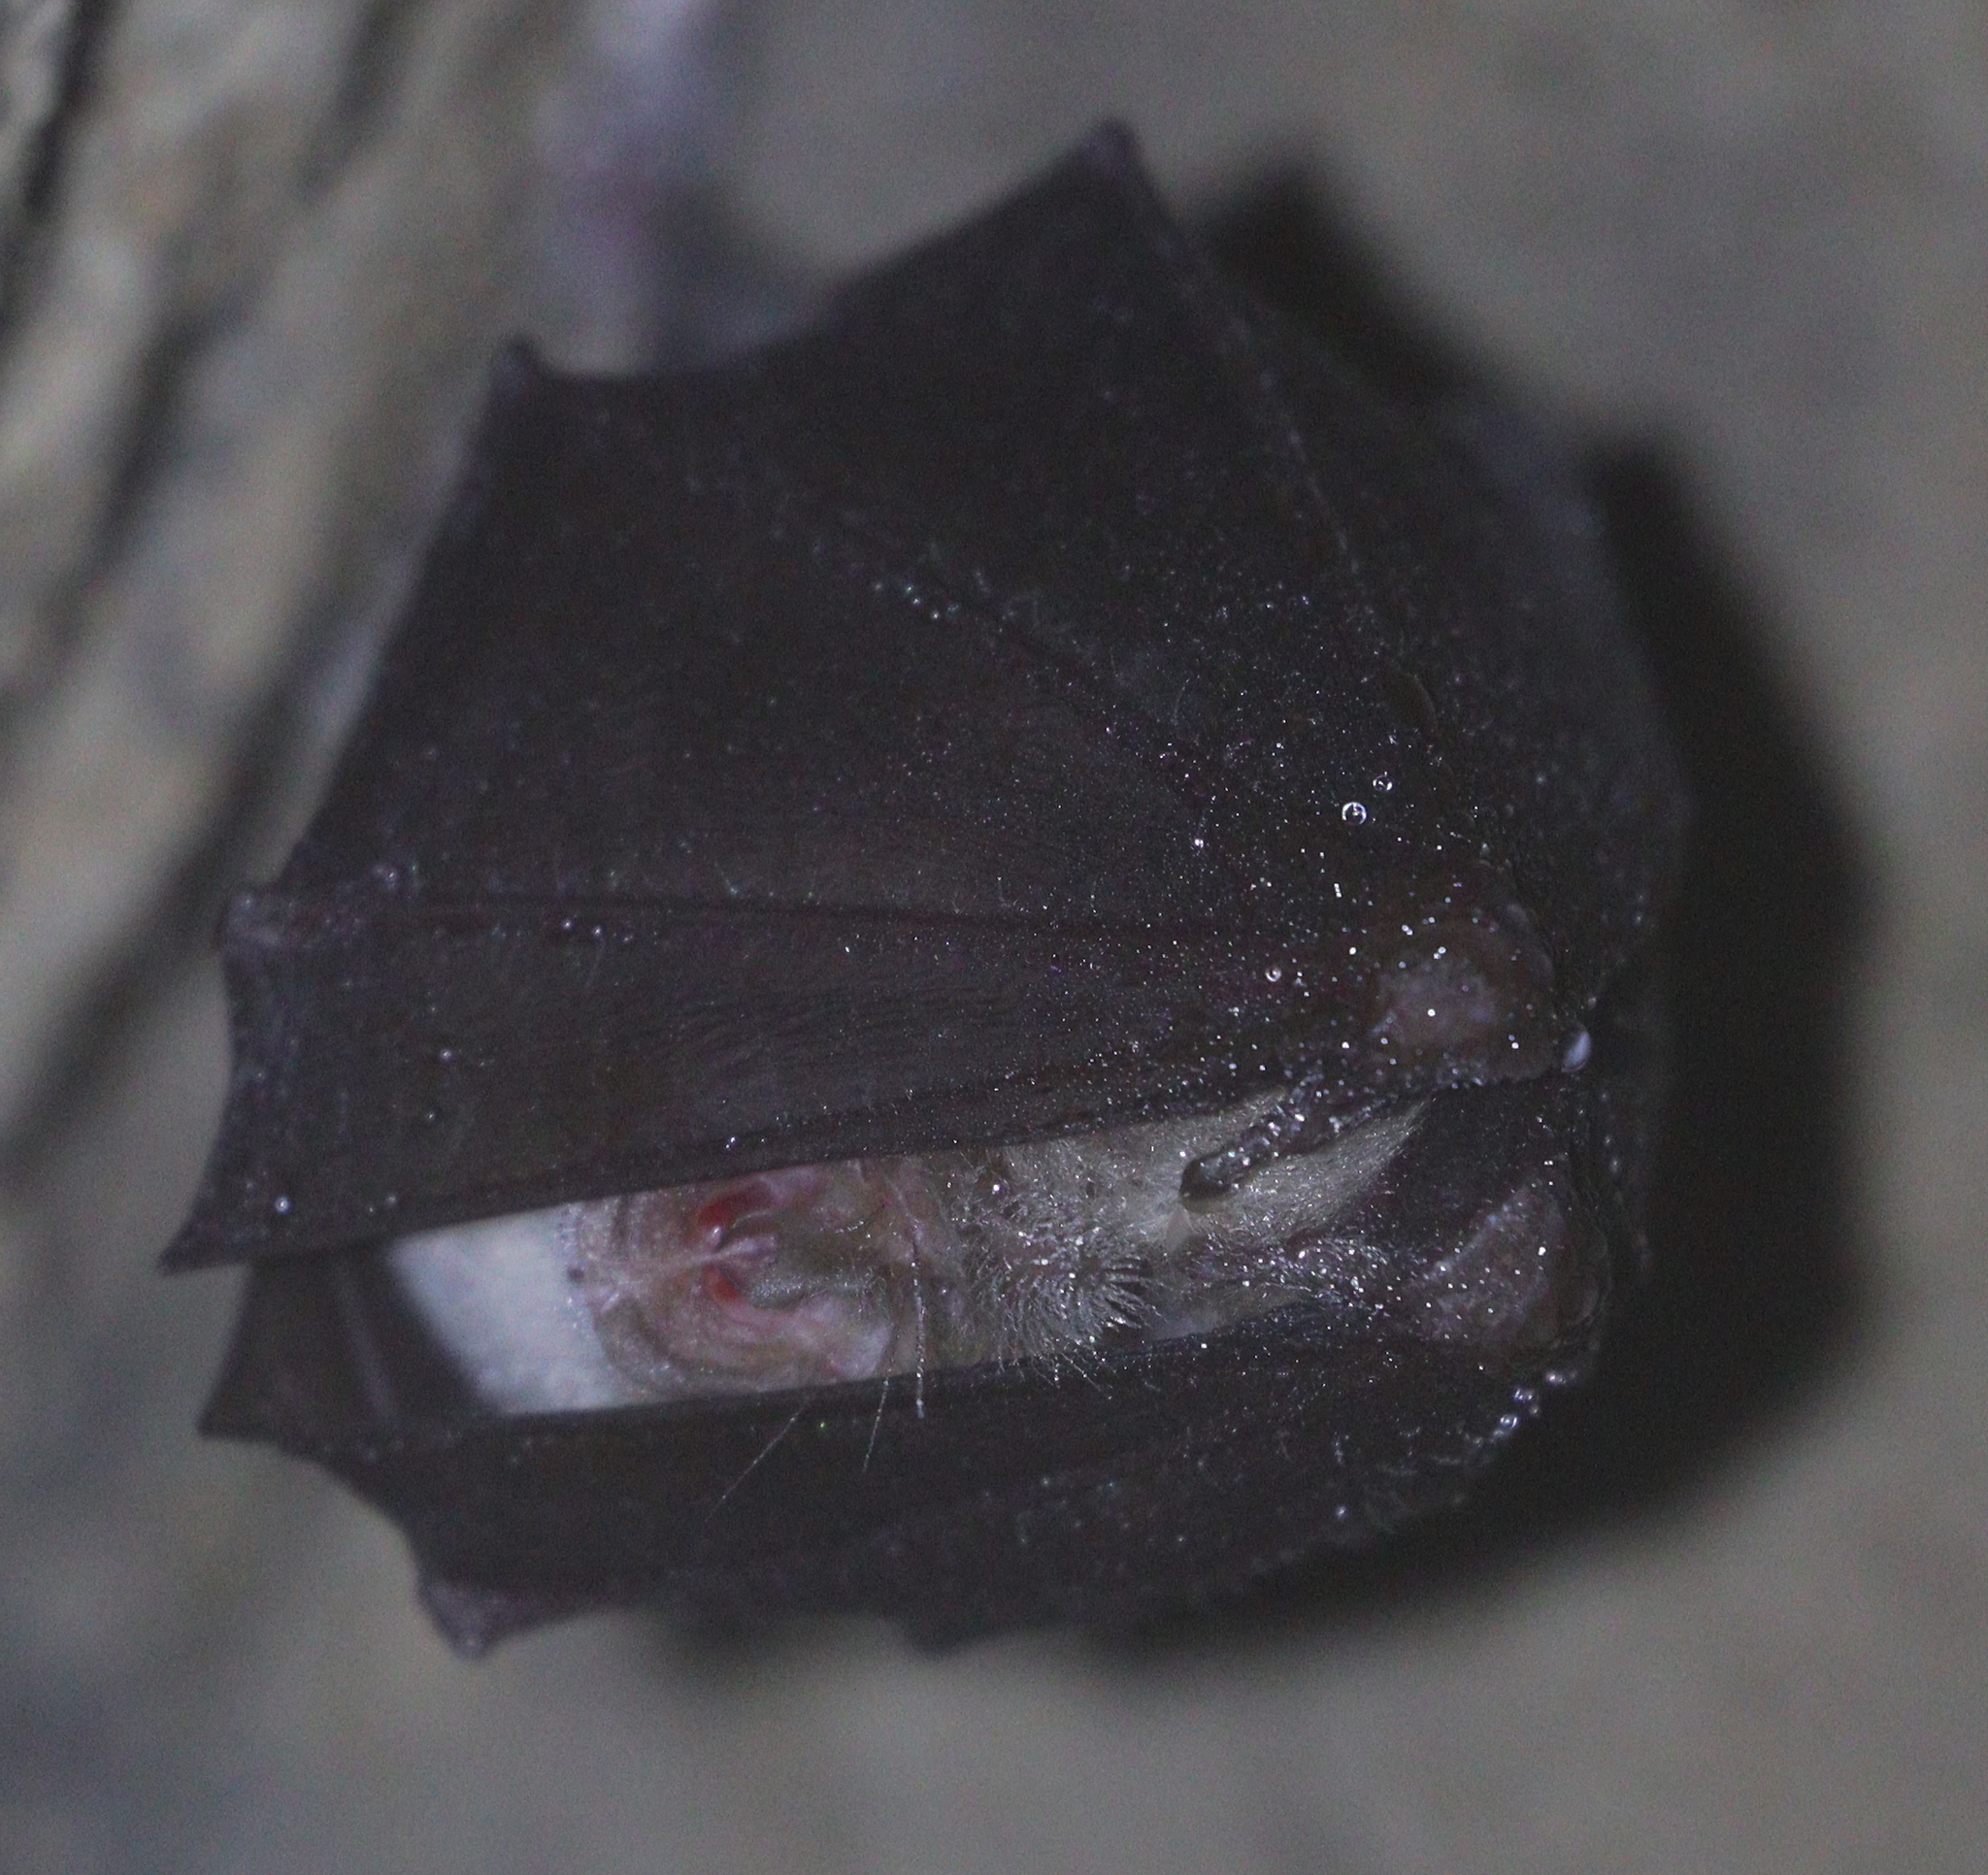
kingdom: Animalia
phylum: Chordata
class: Mammalia
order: Chiroptera
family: Rhinolophidae
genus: Rhinolophus
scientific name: Rhinolophus hipposideros
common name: Lesser horseshoe bat
